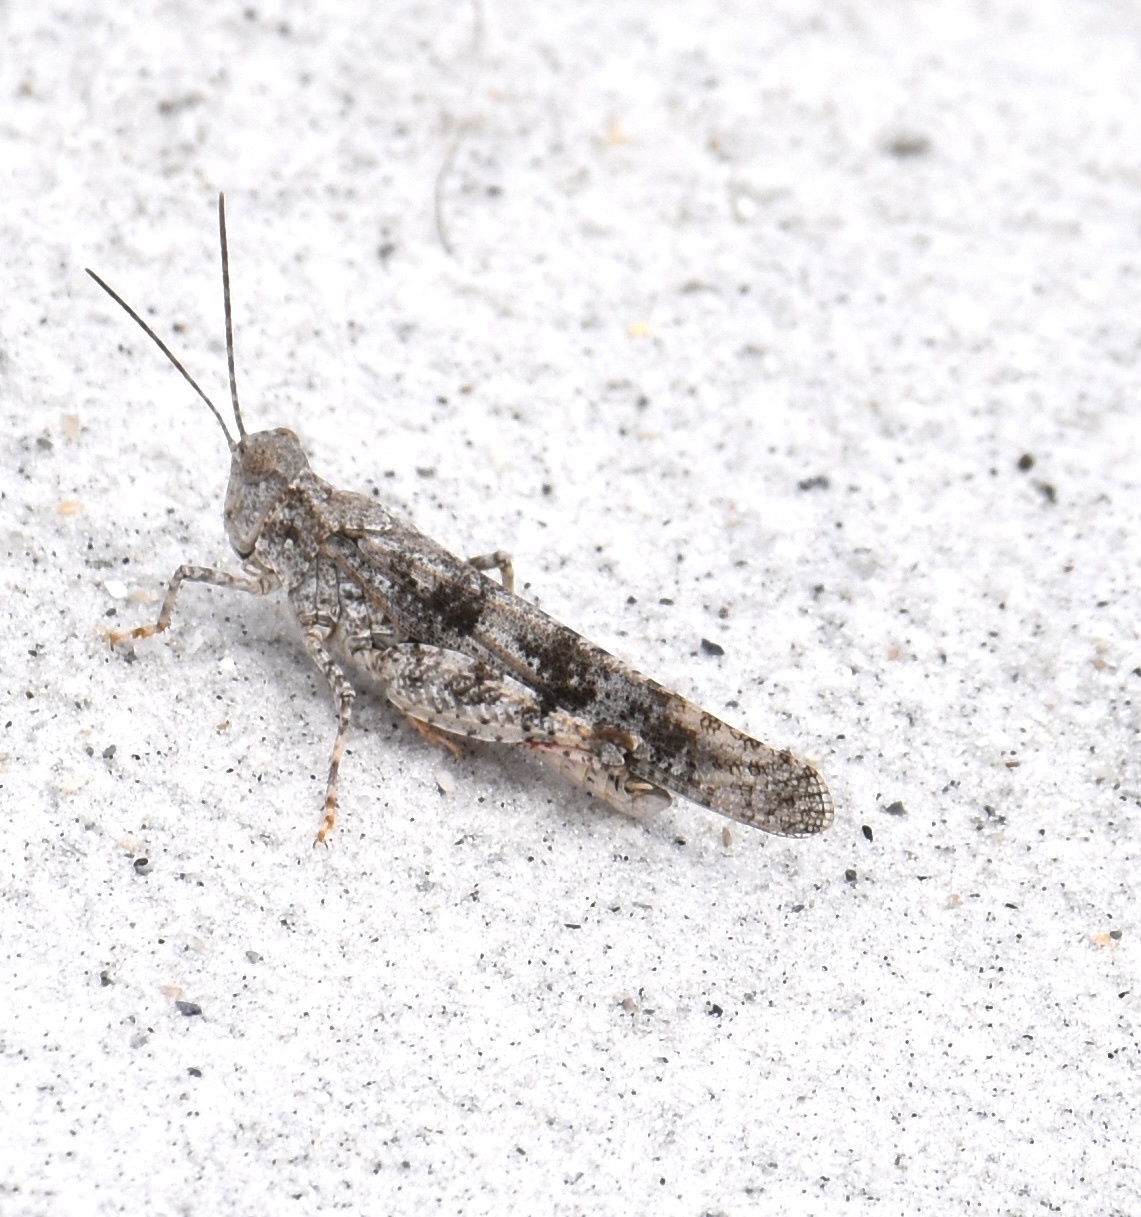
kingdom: Animalia
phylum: Arthropoda
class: Insecta
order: Orthoptera
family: Acrididae
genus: Trimerotropis
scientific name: Trimerotropis maritima
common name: Seaside locust
